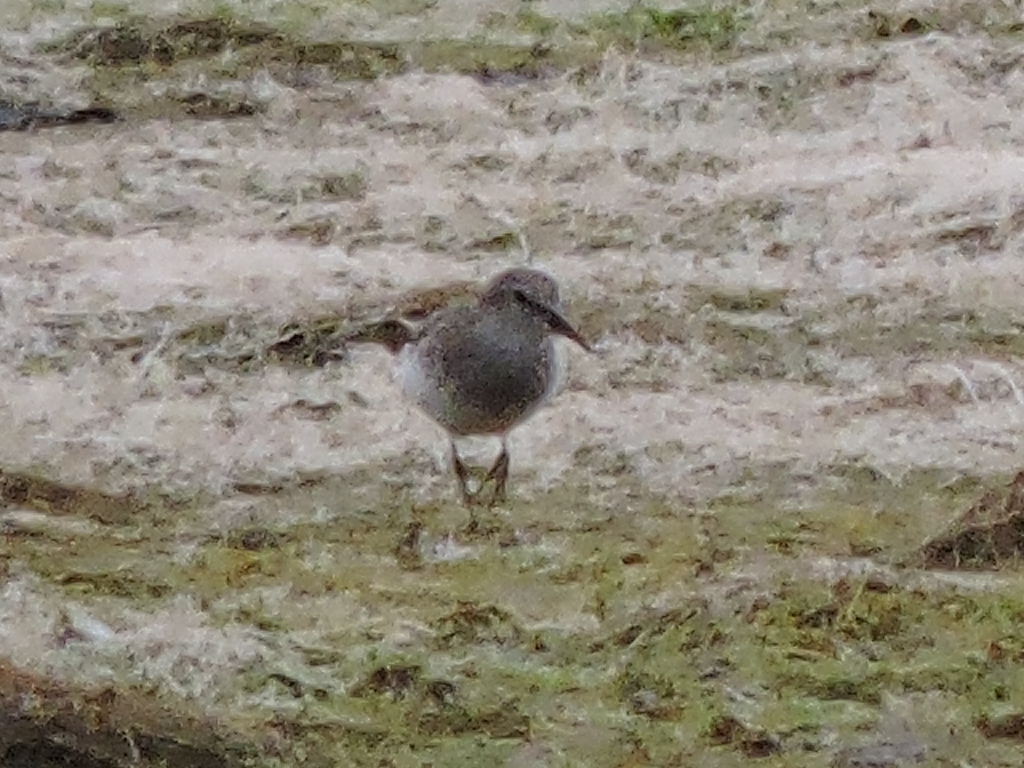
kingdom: Animalia
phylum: Chordata
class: Aves
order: Charadriiformes
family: Scolopacidae
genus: Calidris
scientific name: Calidris minutilla
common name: Least sandpiper
